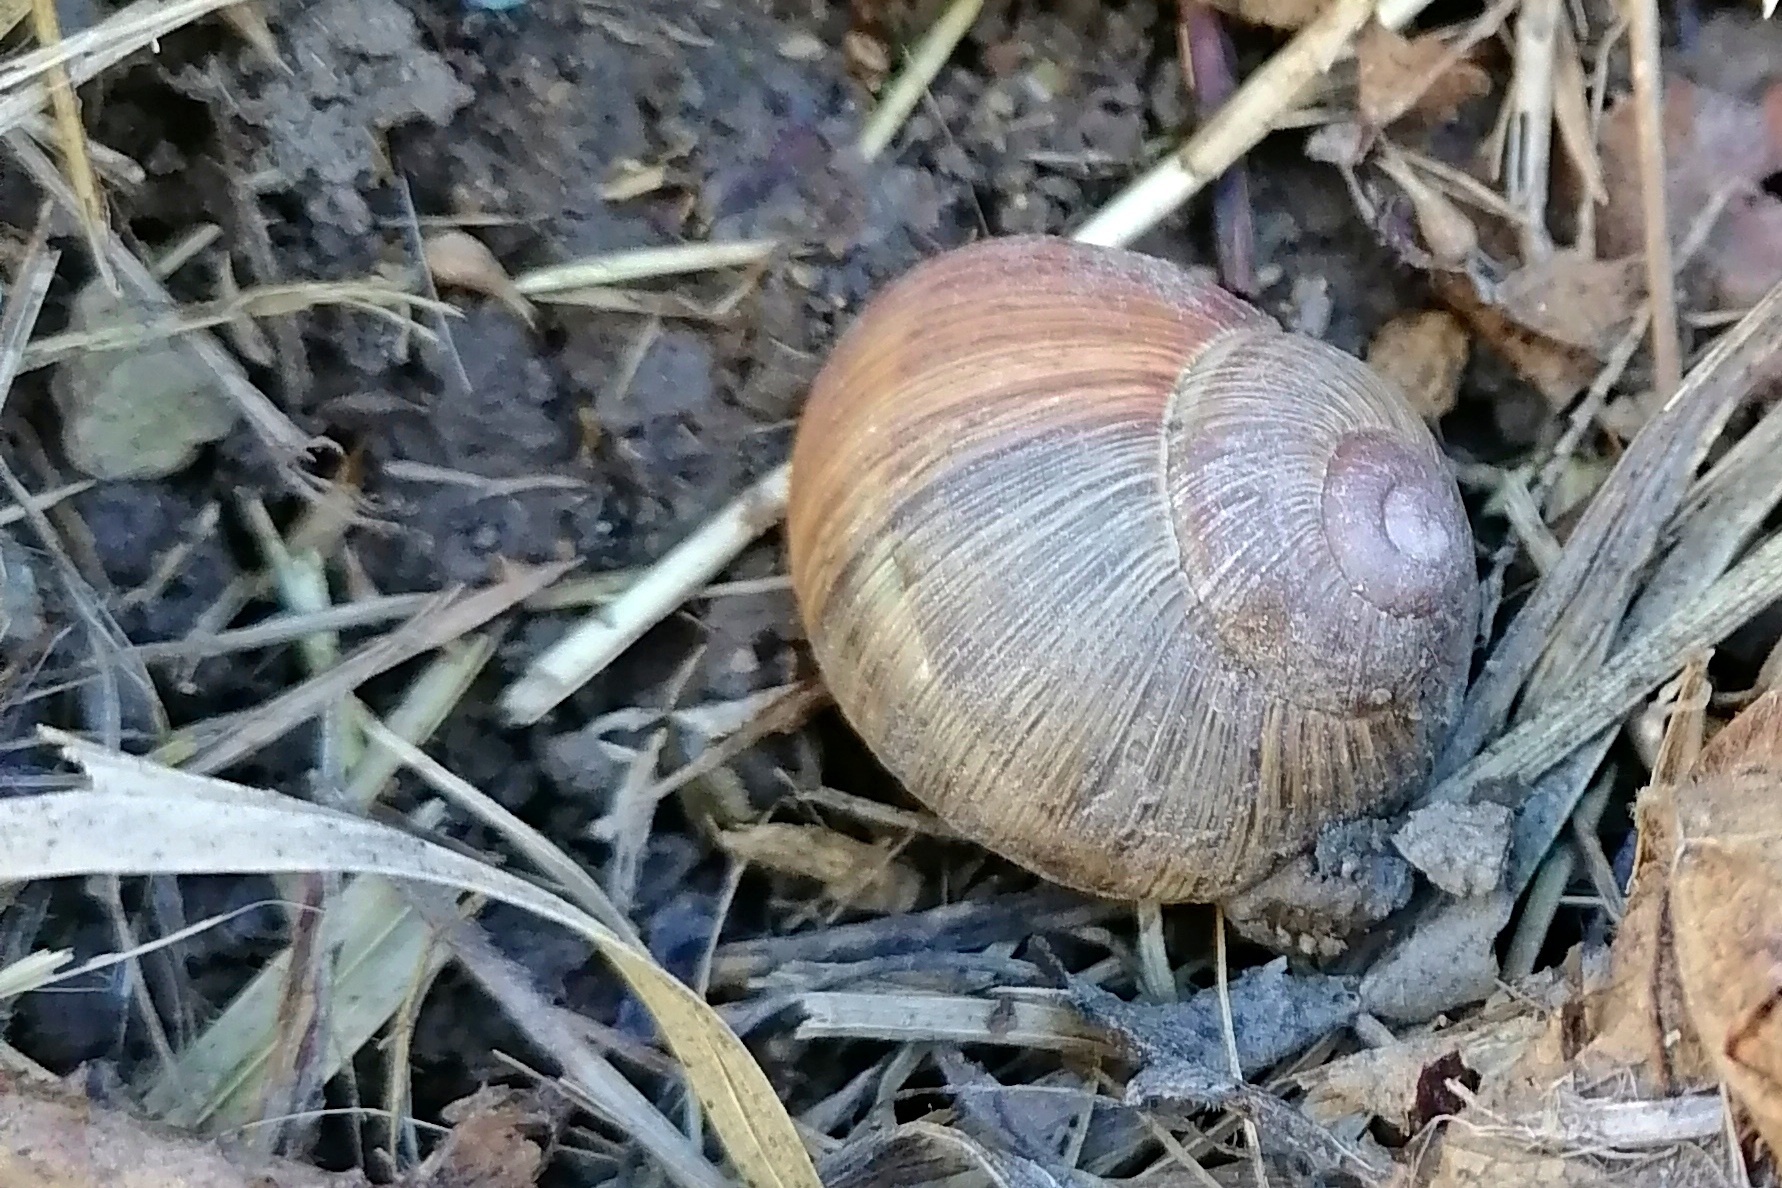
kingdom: Animalia
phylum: Mollusca
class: Gastropoda
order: Stylommatophora
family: Helicidae
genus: Helix
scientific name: Helix pomatia
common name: Roman snail
